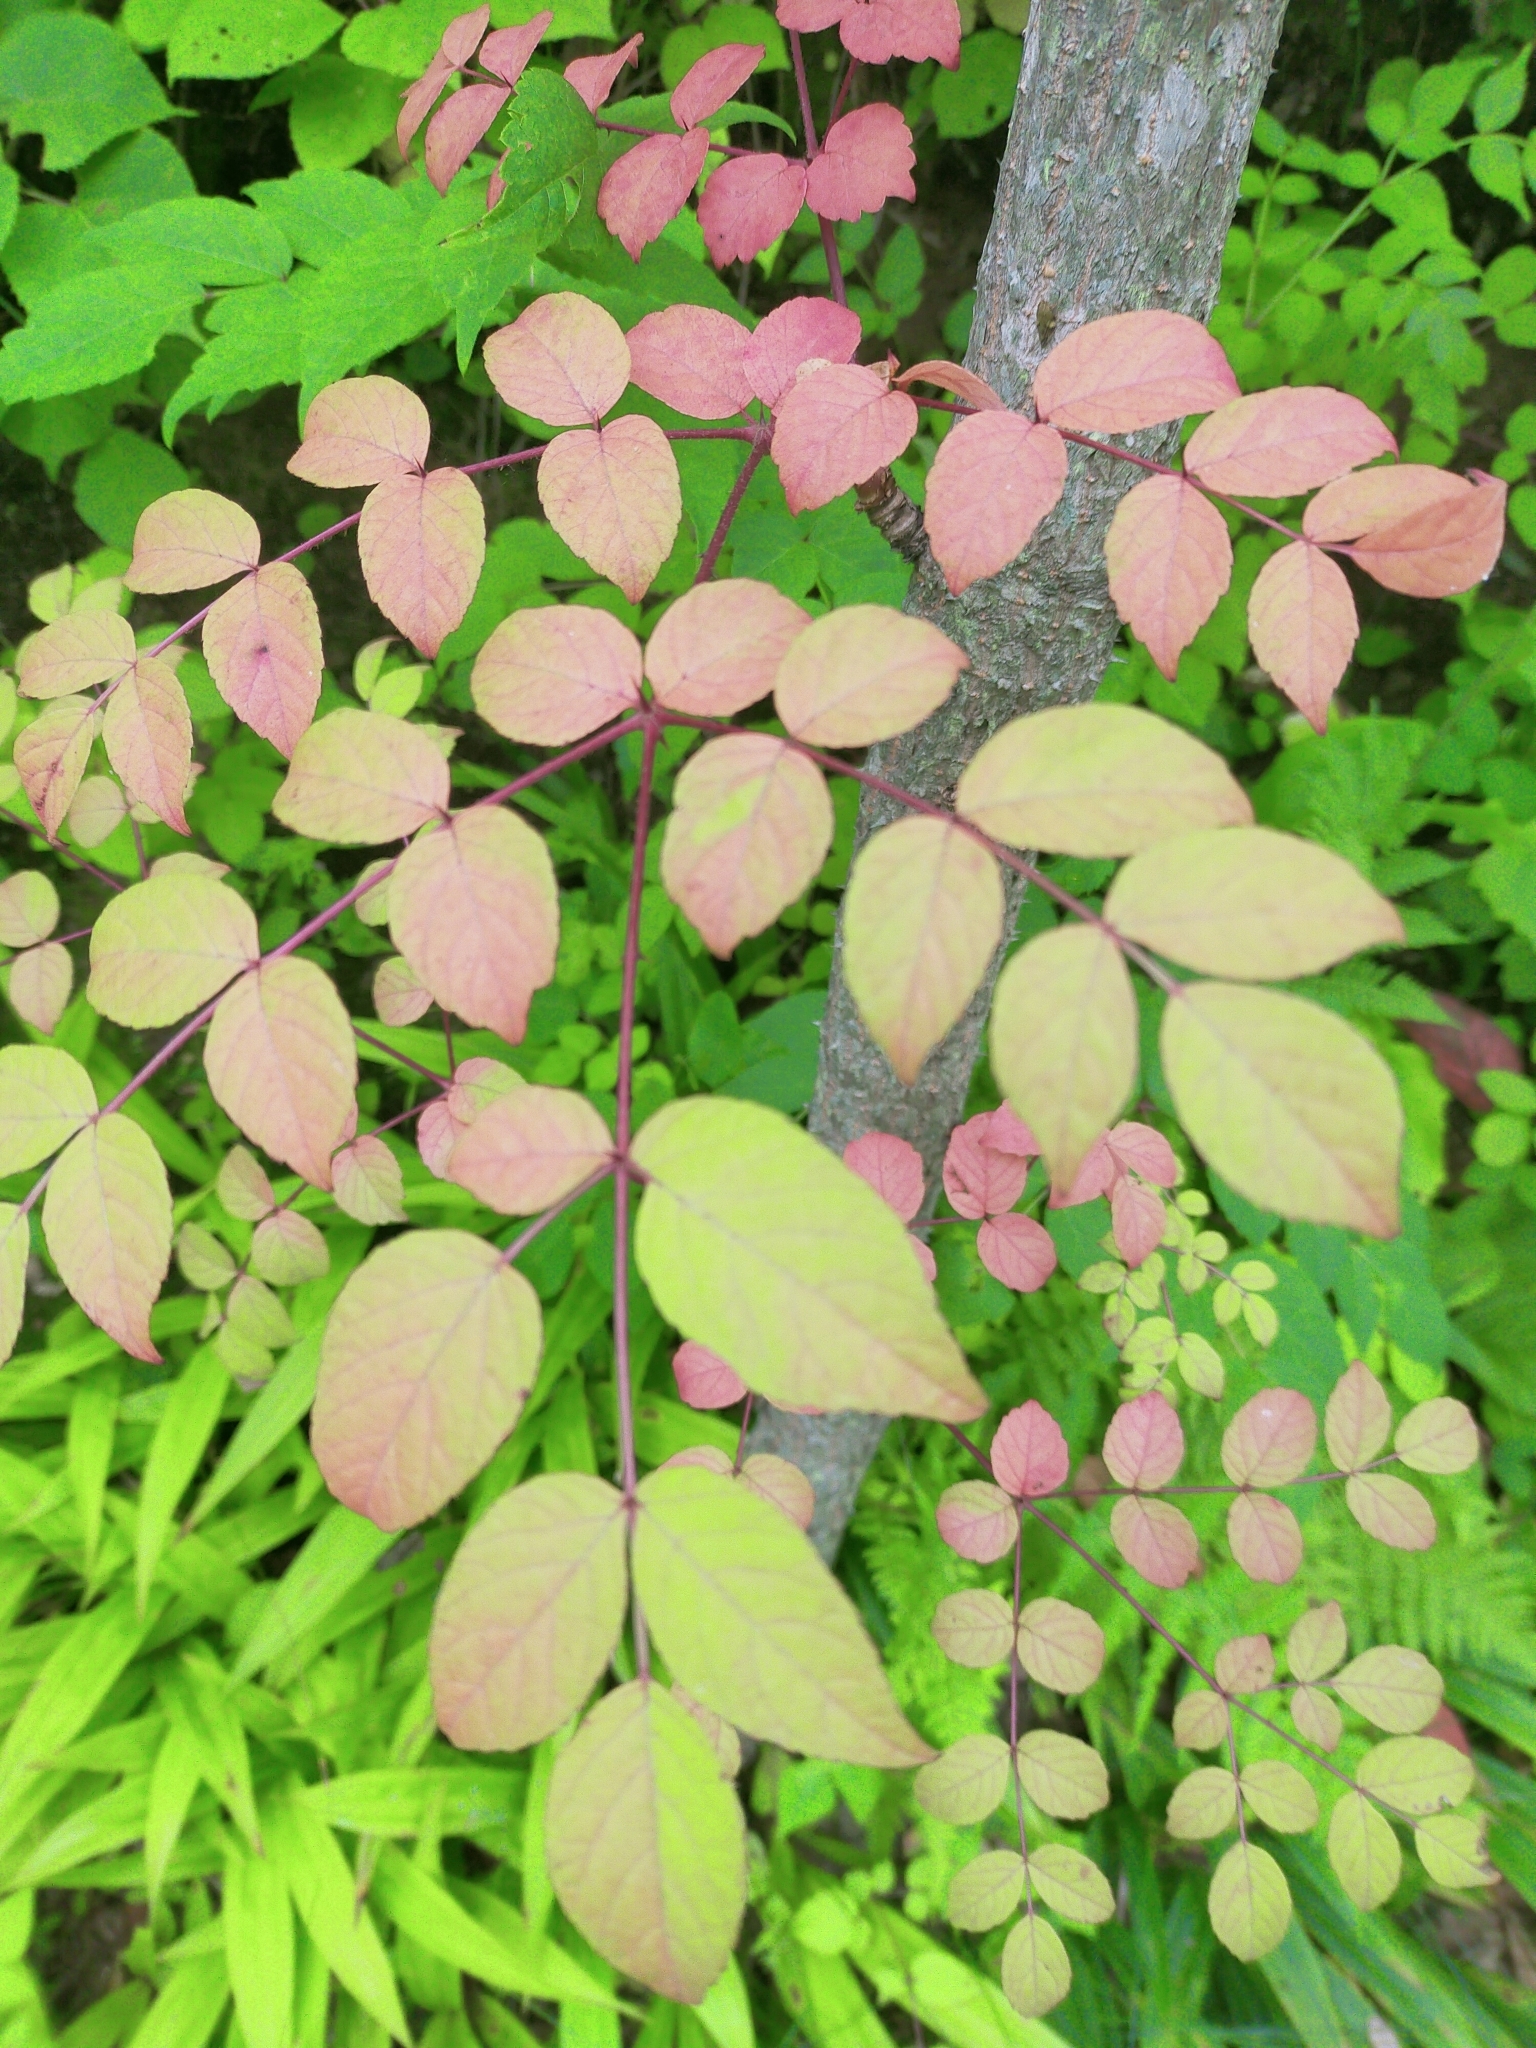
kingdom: Plantae
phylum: Tracheophyta
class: Magnoliopsida
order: Apiales
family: Araliaceae
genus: Aralia
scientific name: Aralia elata
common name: Japanese angelica-tree
